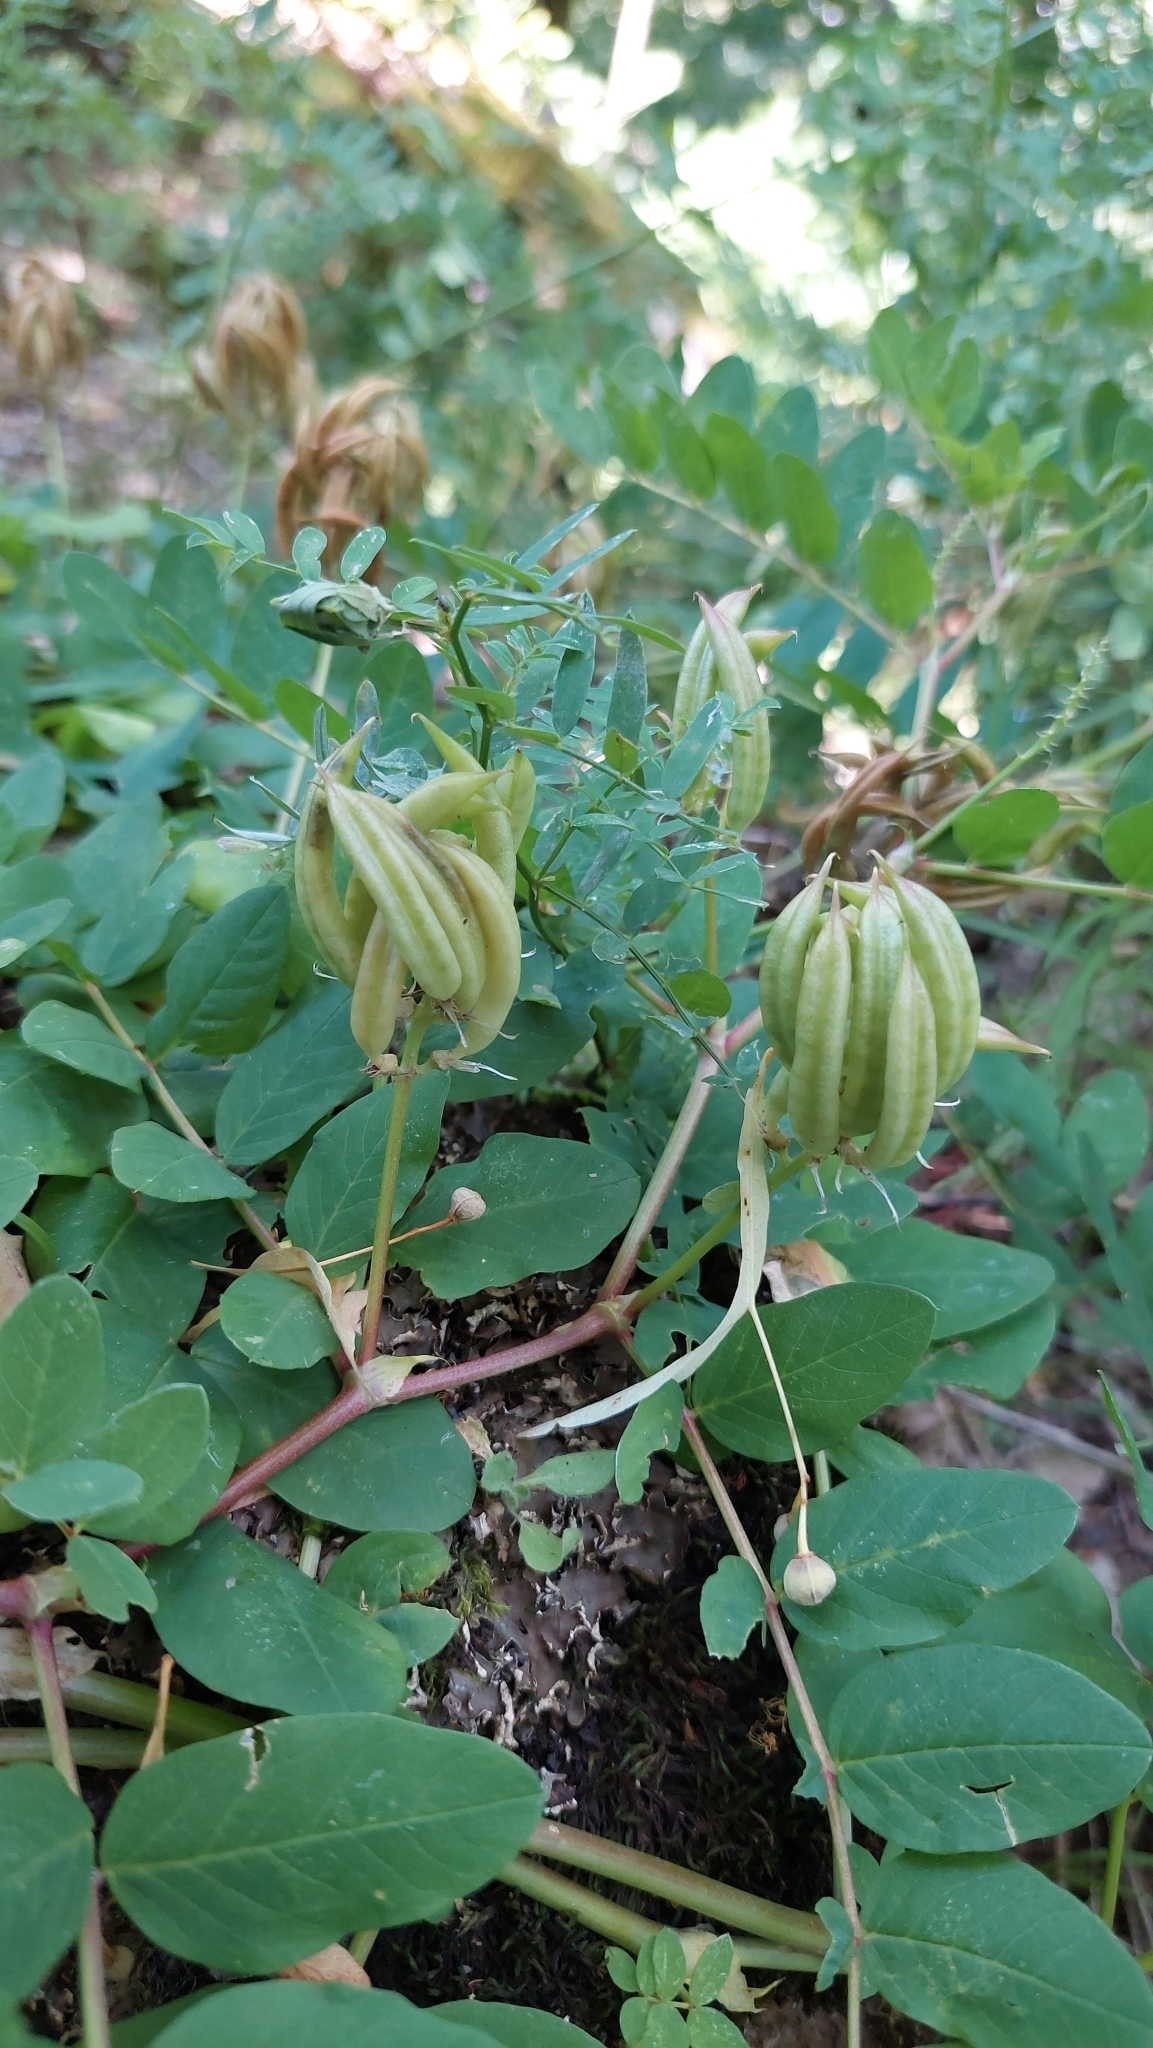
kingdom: Plantae
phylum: Tracheophyta
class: Magnoliopsida
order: Fabales
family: Fabaceae
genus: Astragalus
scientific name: Astragalus glycyphyllos
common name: Wild liquorice
